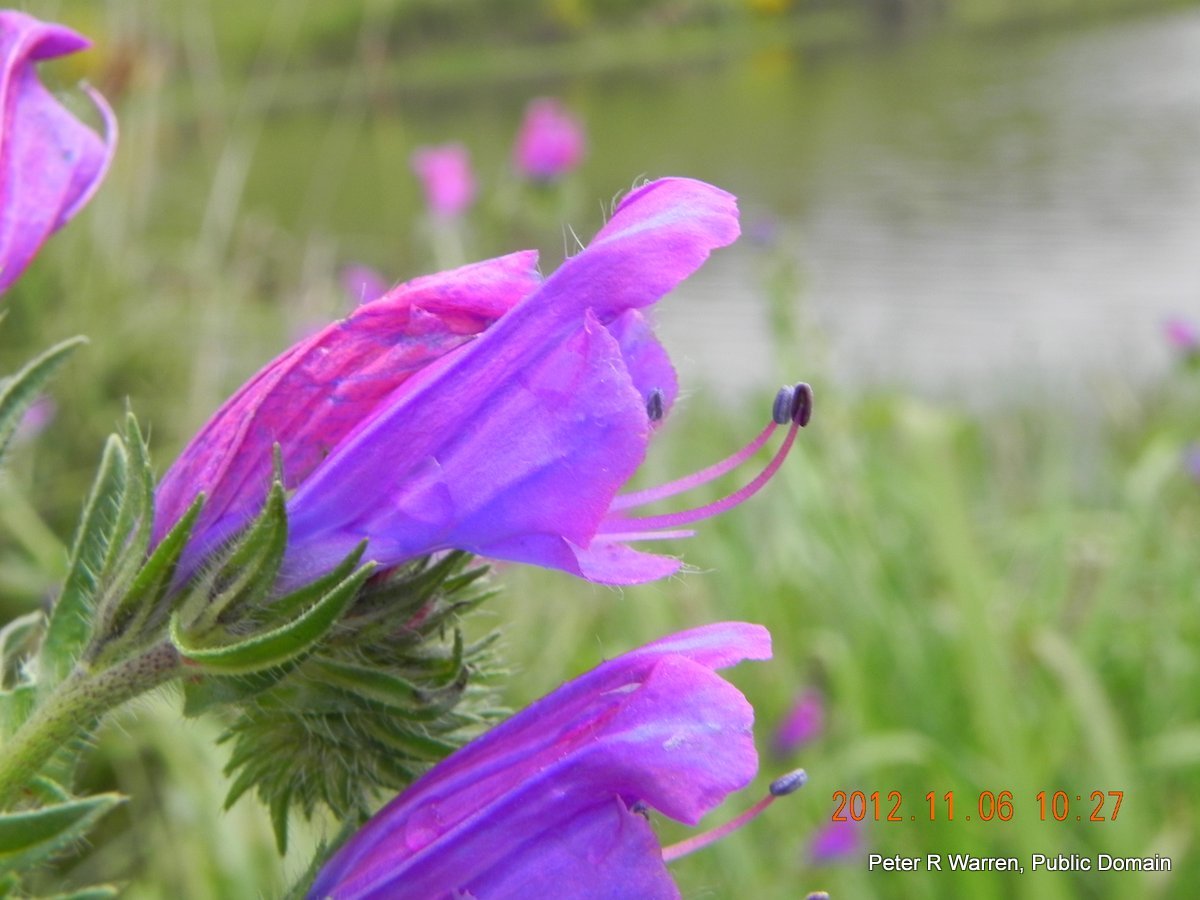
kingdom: Plantae
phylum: Tracheophyta
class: Magnoliopsida
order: Boraginales
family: Boraginaceae
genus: Echium
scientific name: Echium plantagineum
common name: Purple viper's-bugloss
